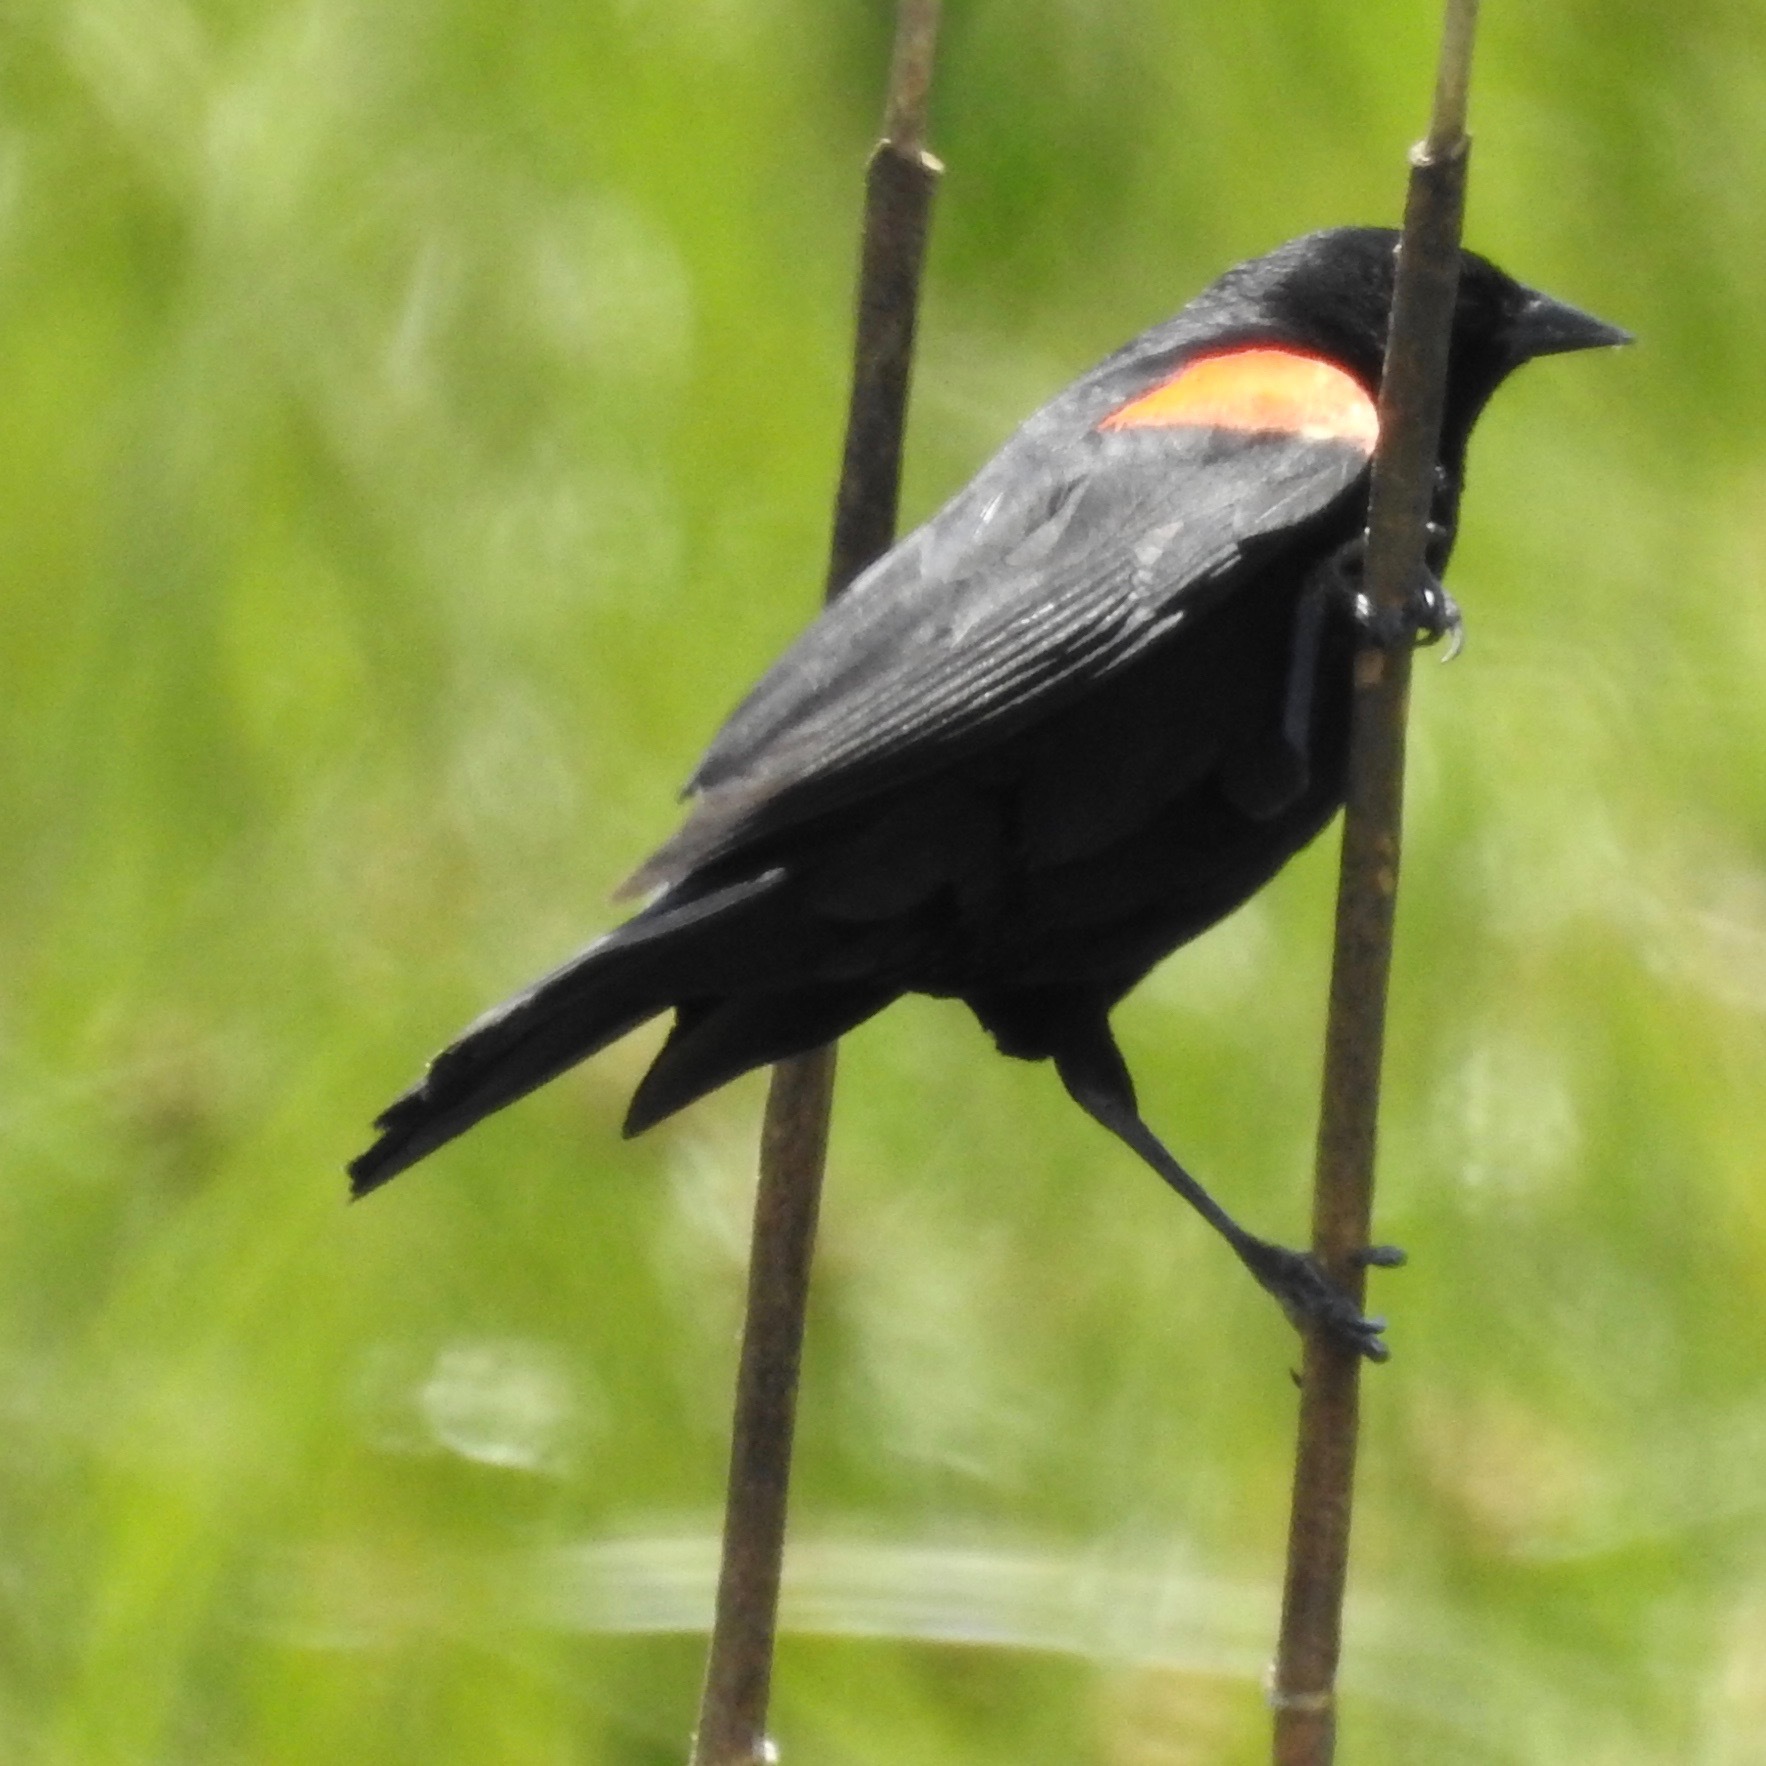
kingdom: Animalia
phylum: Chordata
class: Aves
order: Passeriformes
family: Icteridae
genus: Agelaius
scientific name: Agelaius phoeniceus
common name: Red-winged blackbird
